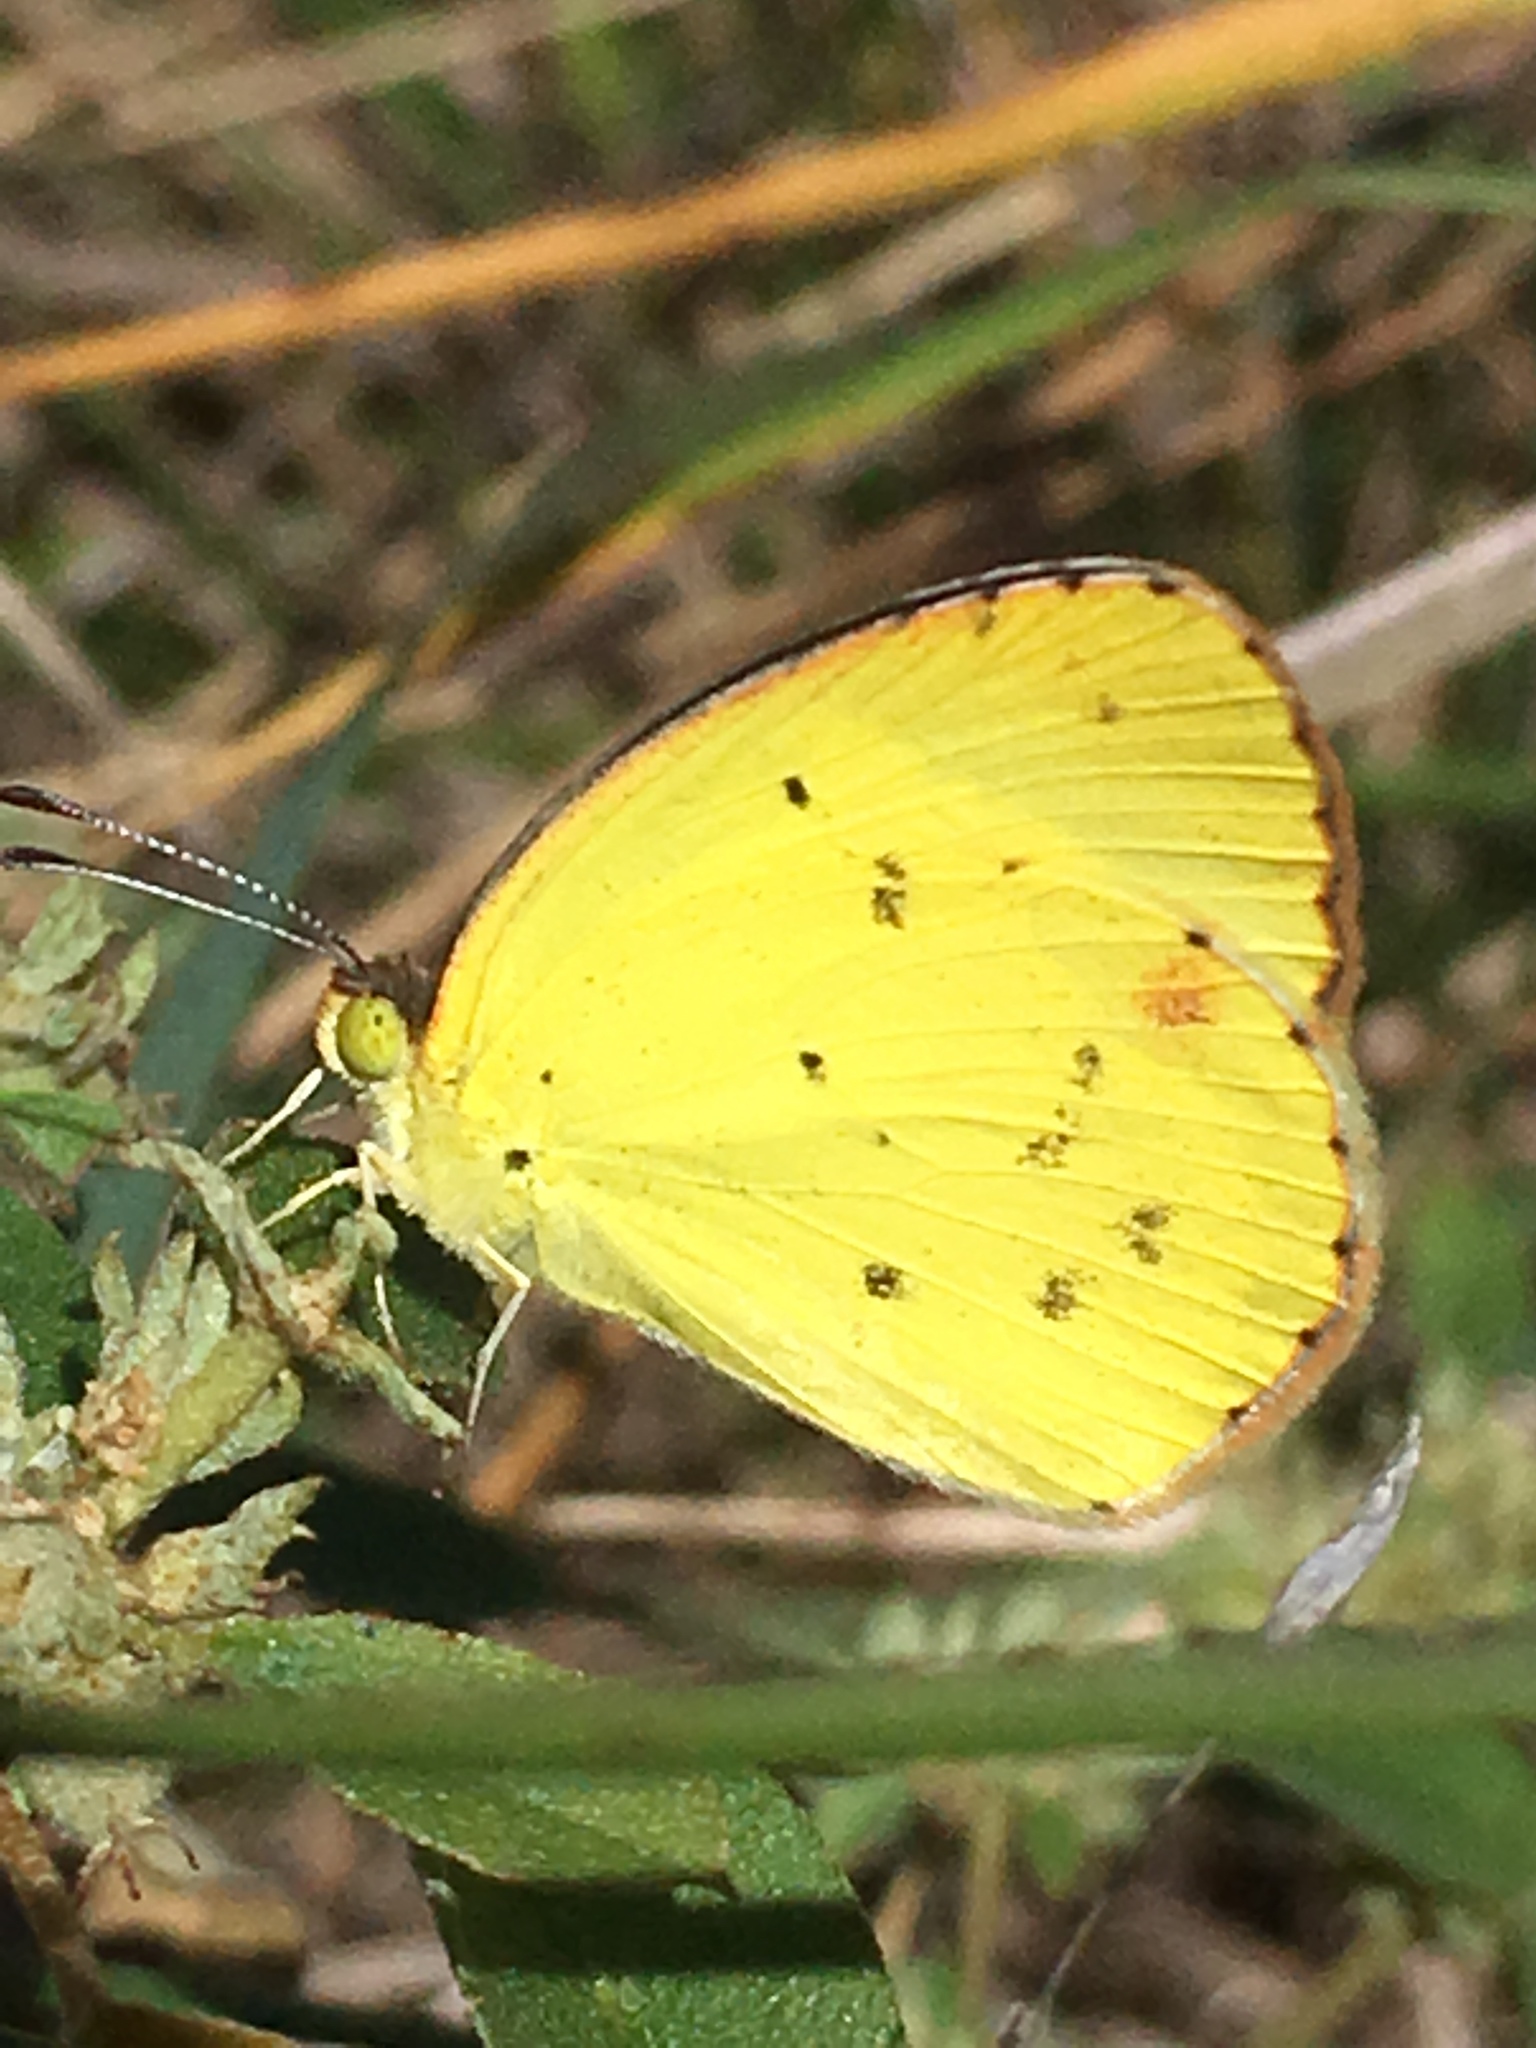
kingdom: Animalia
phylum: Arthropoda
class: Insecta
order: Lepidoptera
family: Pieridae
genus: Pyrisitia
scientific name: Pyrisitia lisa
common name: Little yellow
